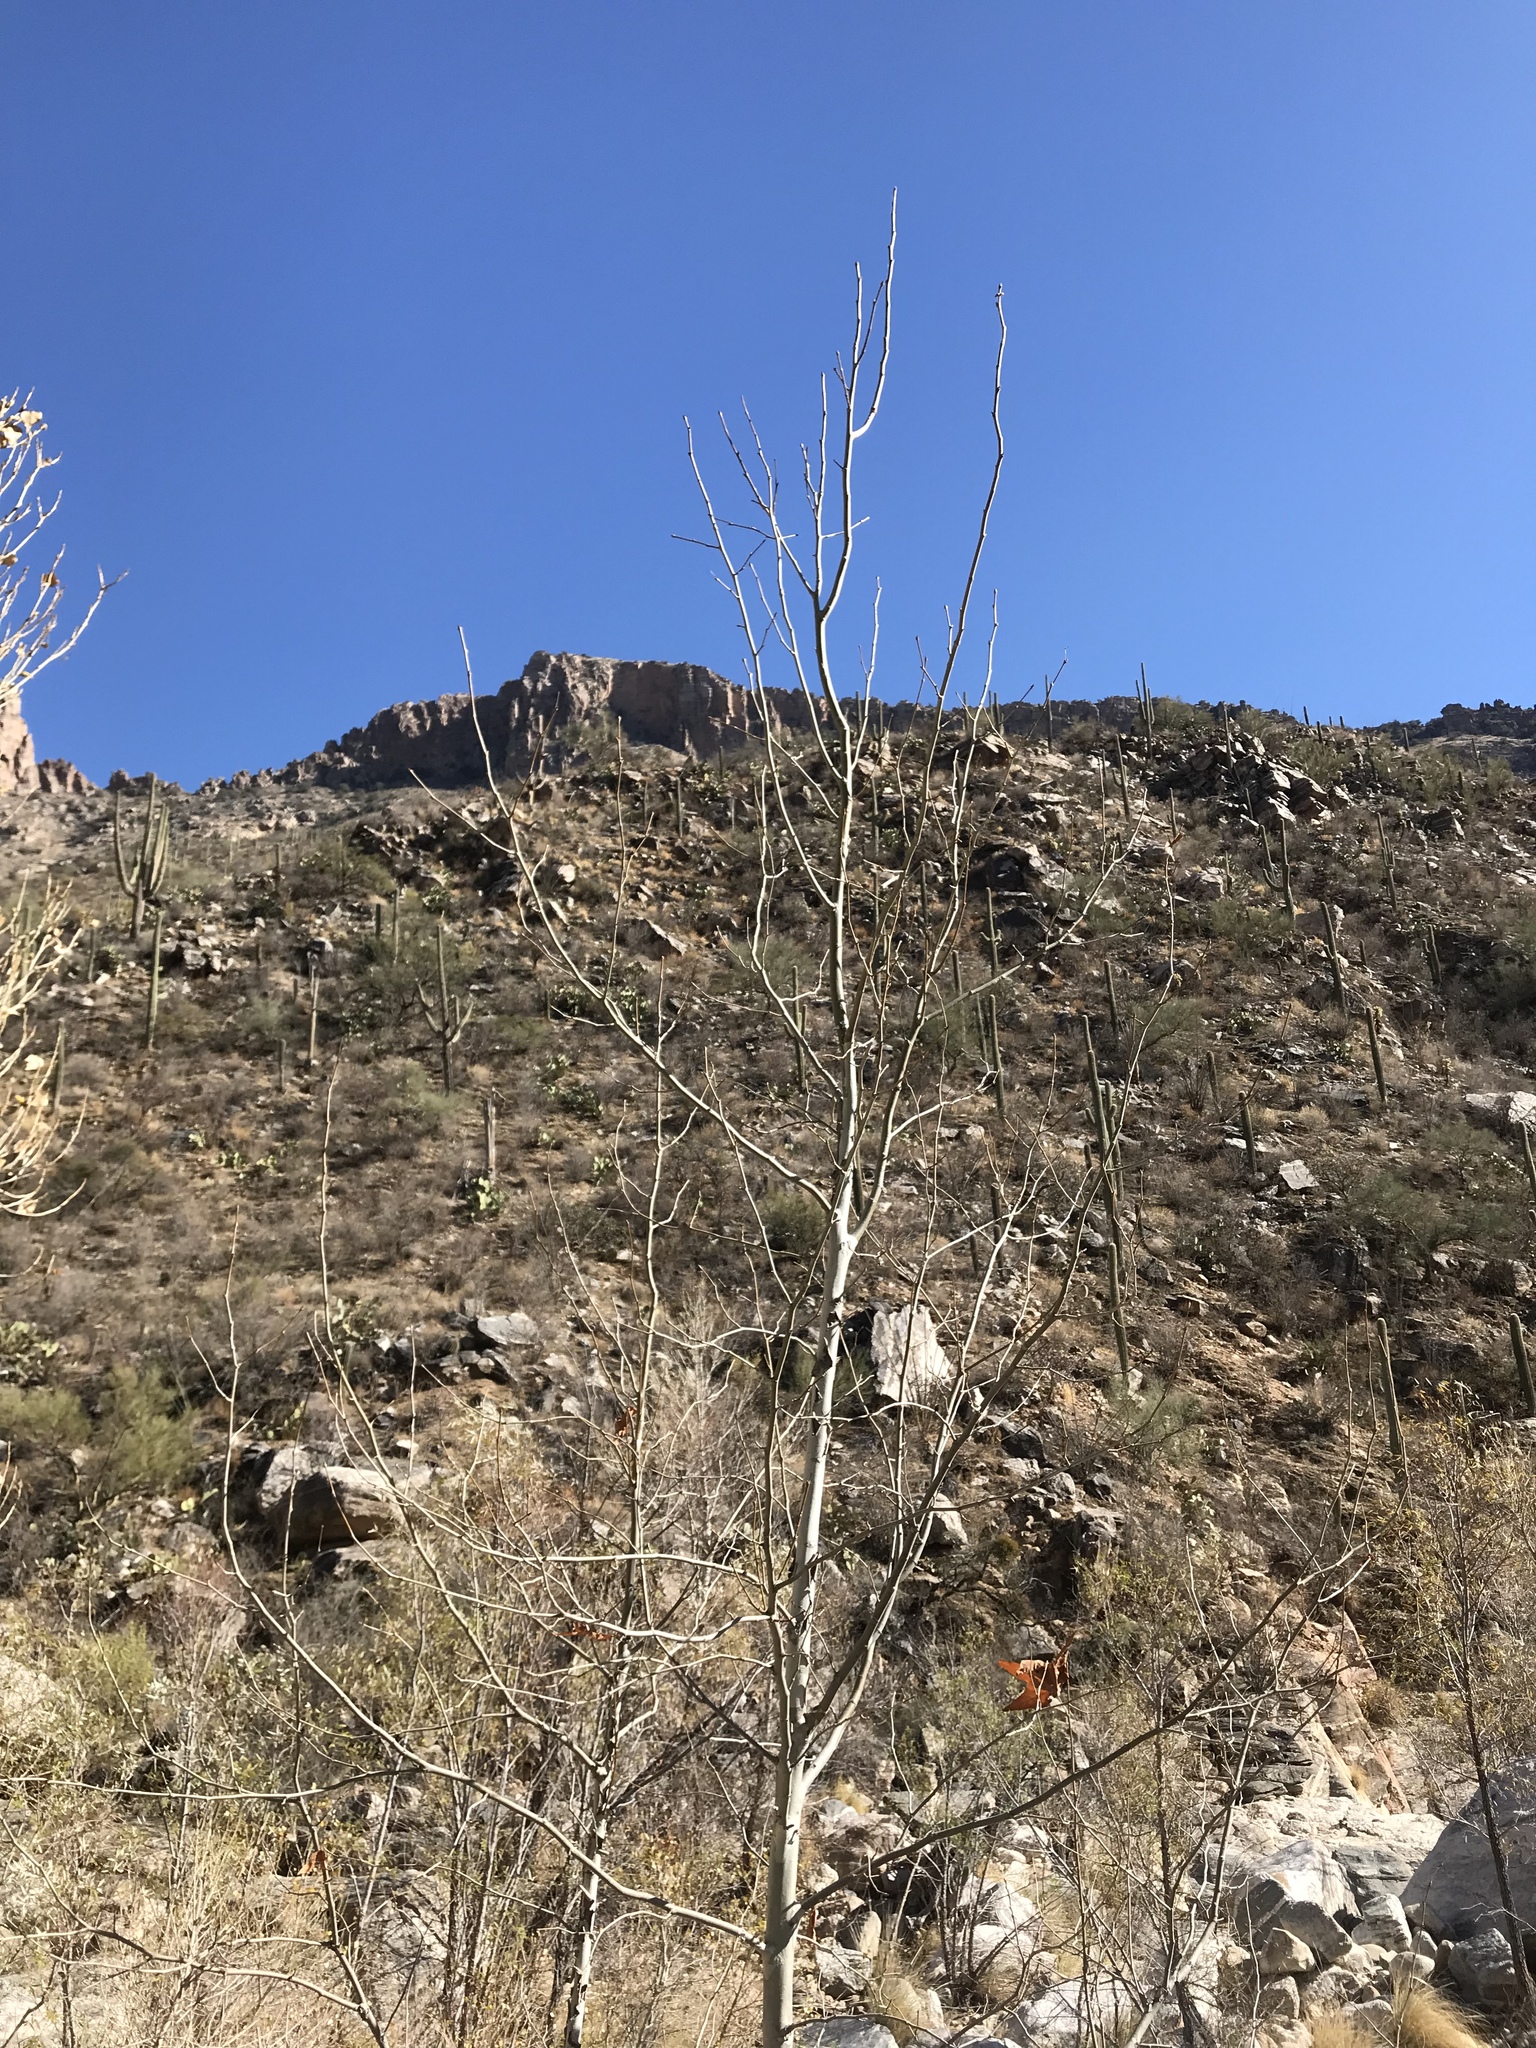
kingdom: Plantae
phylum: Tracheophyta
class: Magnoliopsida
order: Proteales
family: Platanaceae
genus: Platanus
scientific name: Platanus wrightii
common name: Arizona sycamore
